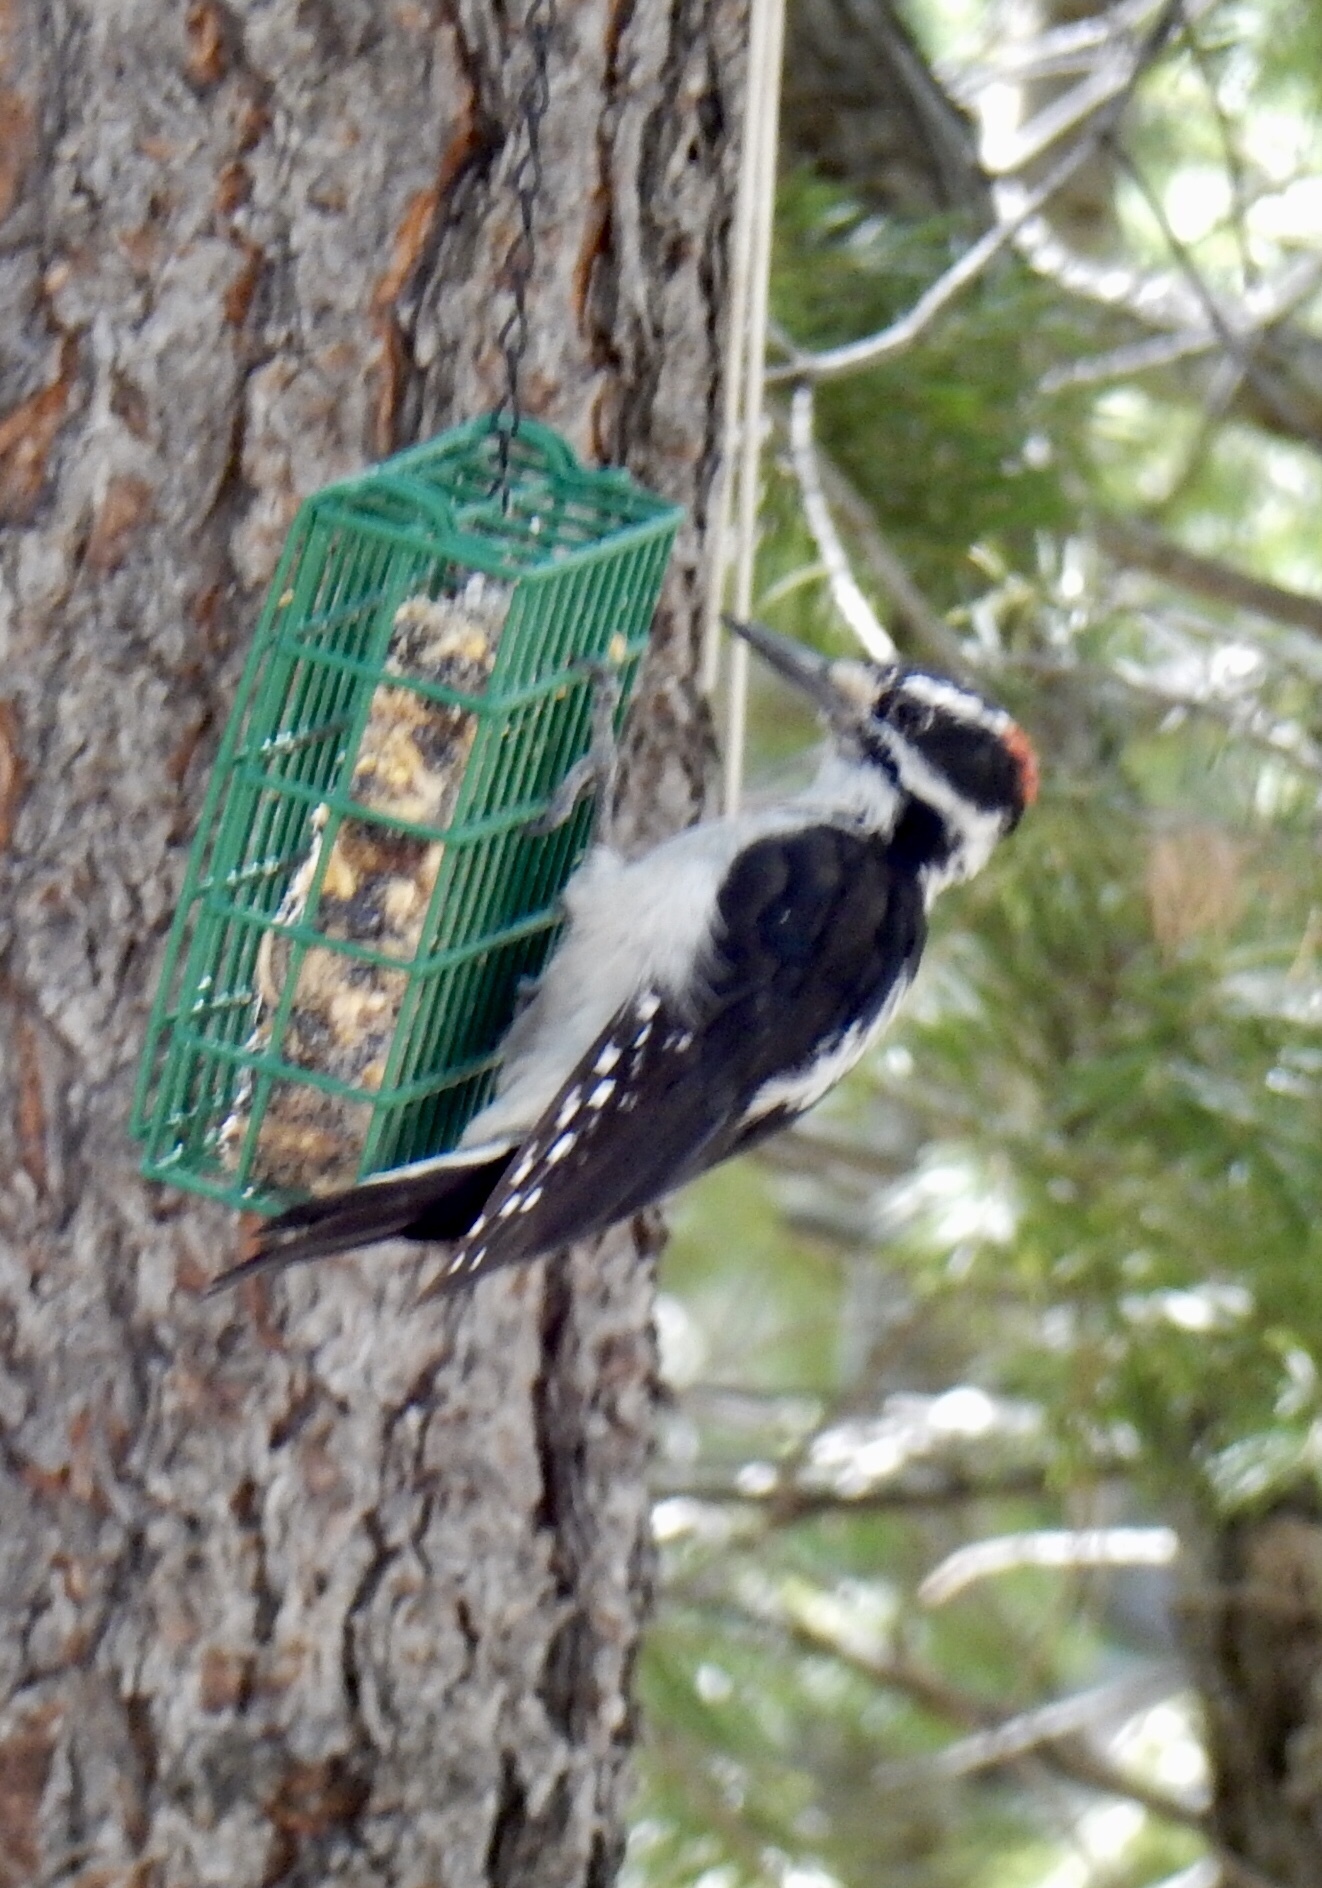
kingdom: Animalia
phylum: Chordata
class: Aves
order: Piciformes
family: Picidae
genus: Leuconotopicus
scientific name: Leuconotopicus villosus
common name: Hairy woodpecker
